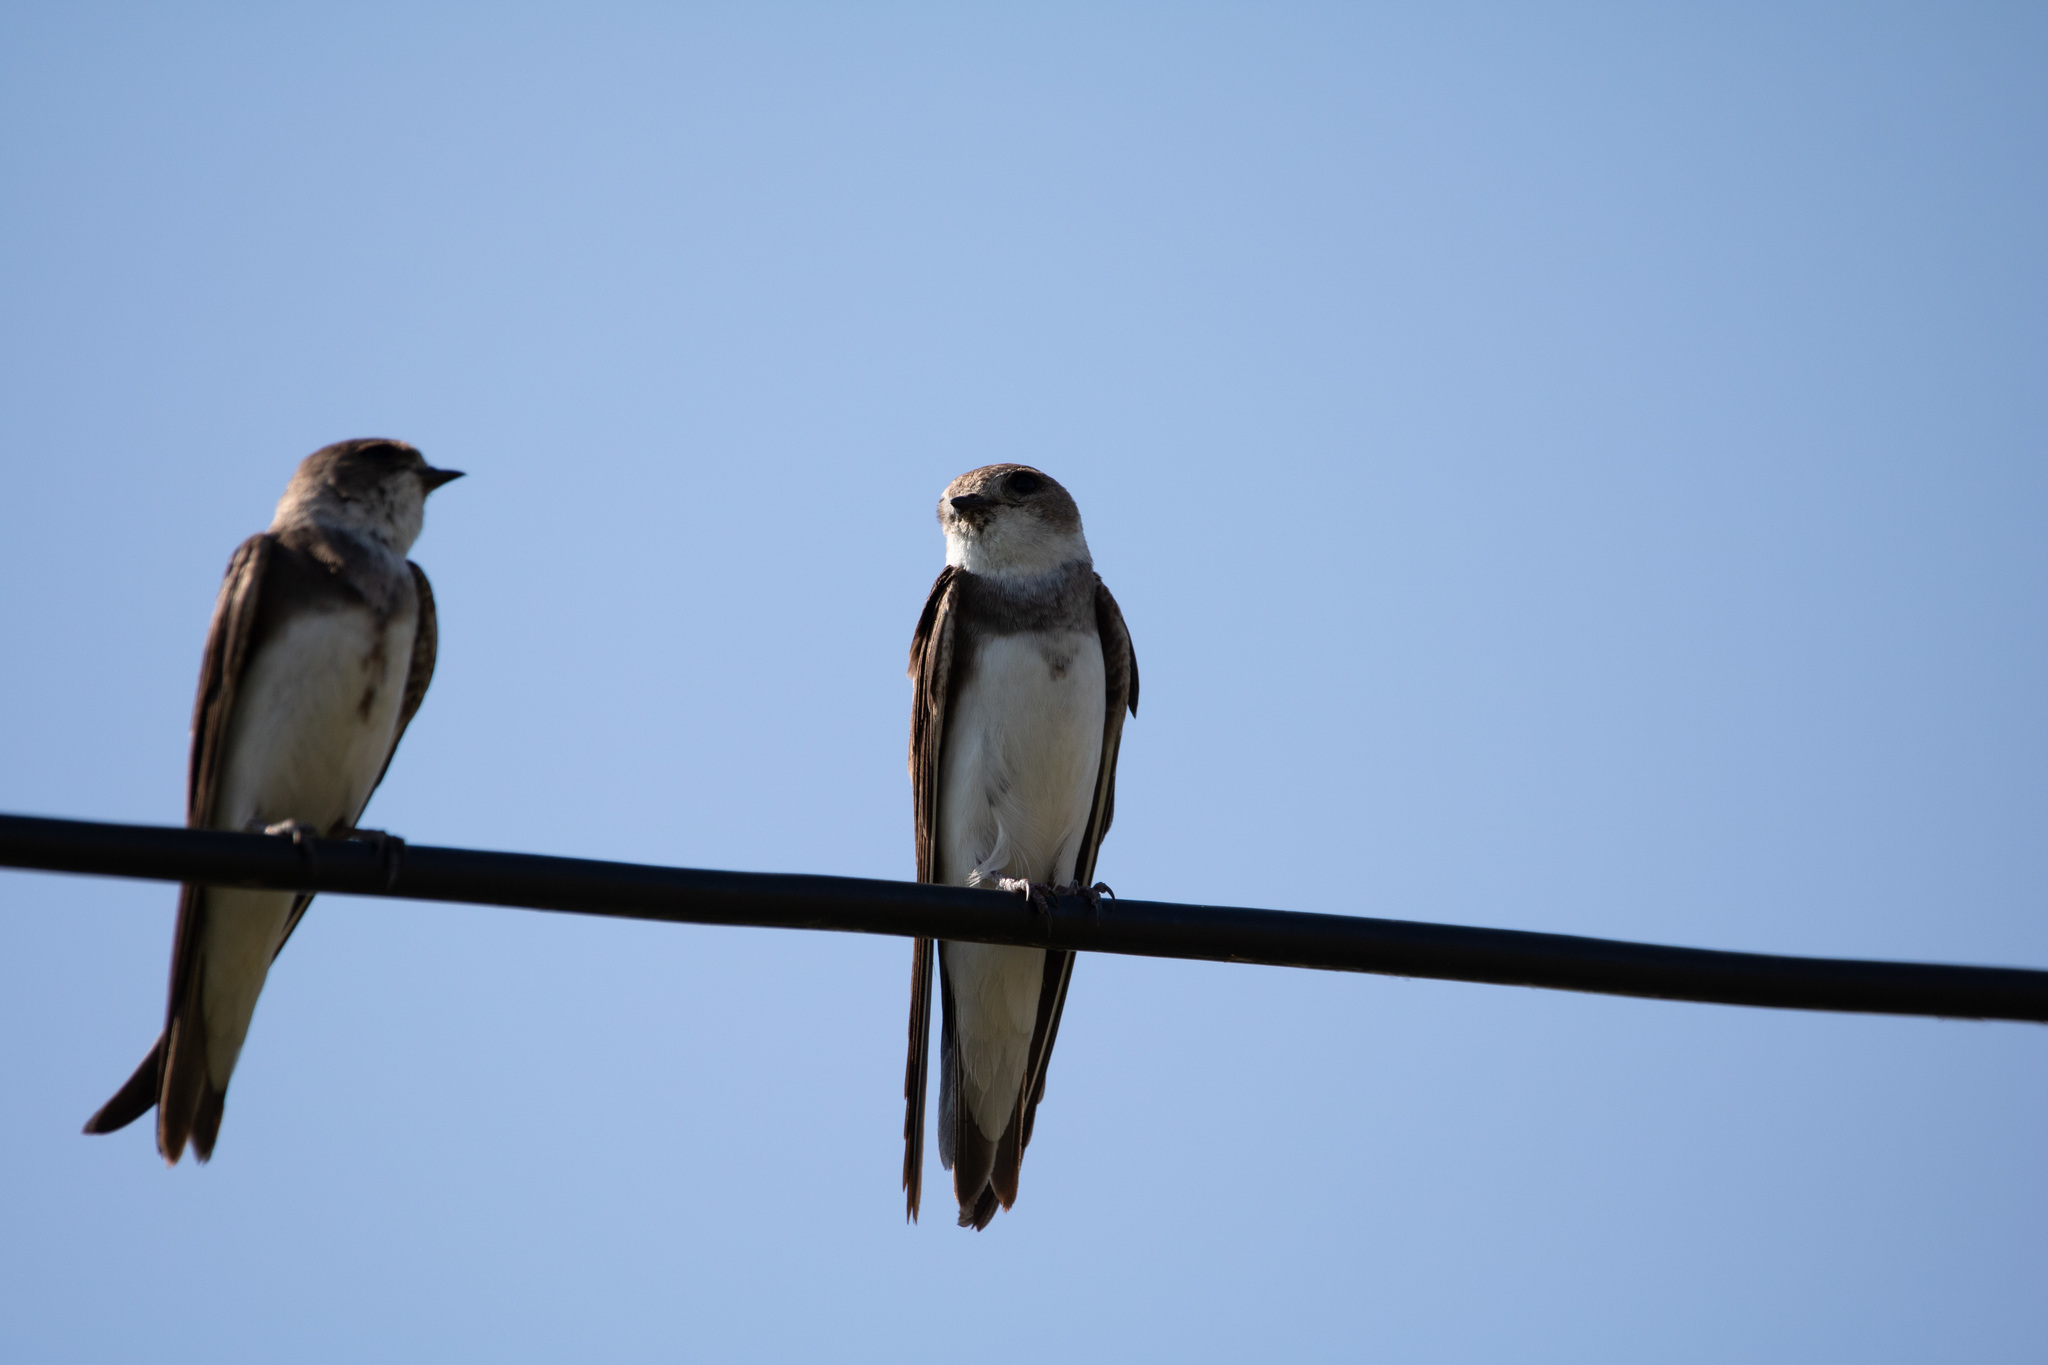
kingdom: Animalia
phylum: Chordata
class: Aves
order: Passeriformes
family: Hirundinidae
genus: Riparia
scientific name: Riparia riparia
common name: Sand martin
